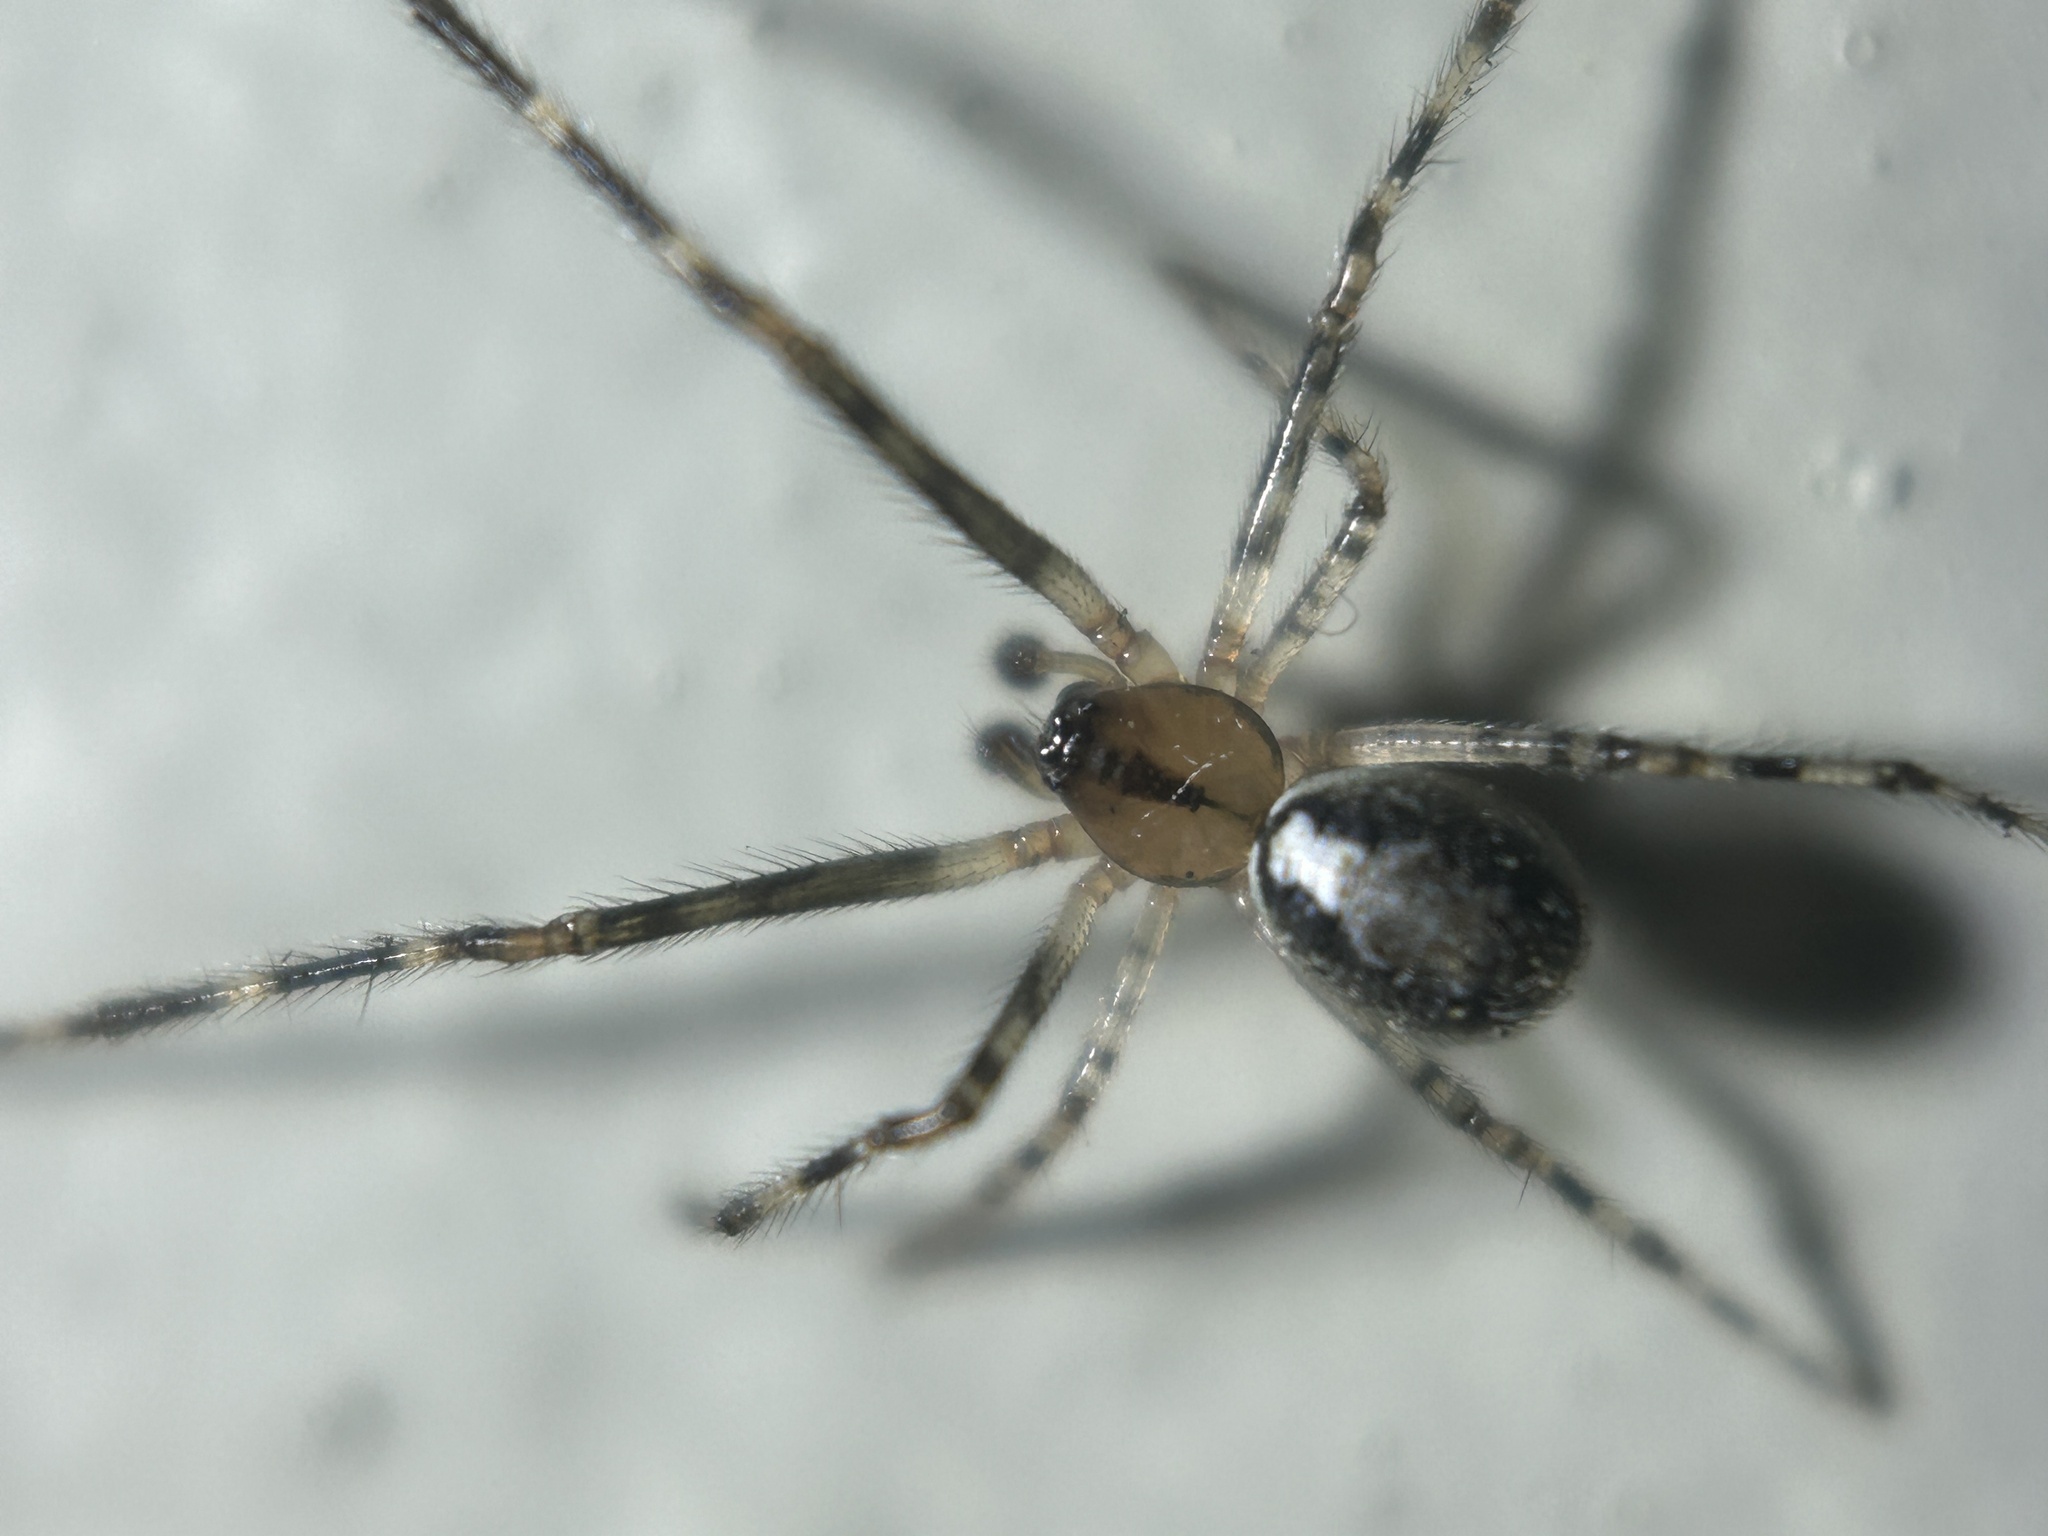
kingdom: Animalia
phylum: Arthropoda
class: Arachnida
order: Araneae
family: Theridiidae
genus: Theridion
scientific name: Theridion murarium
